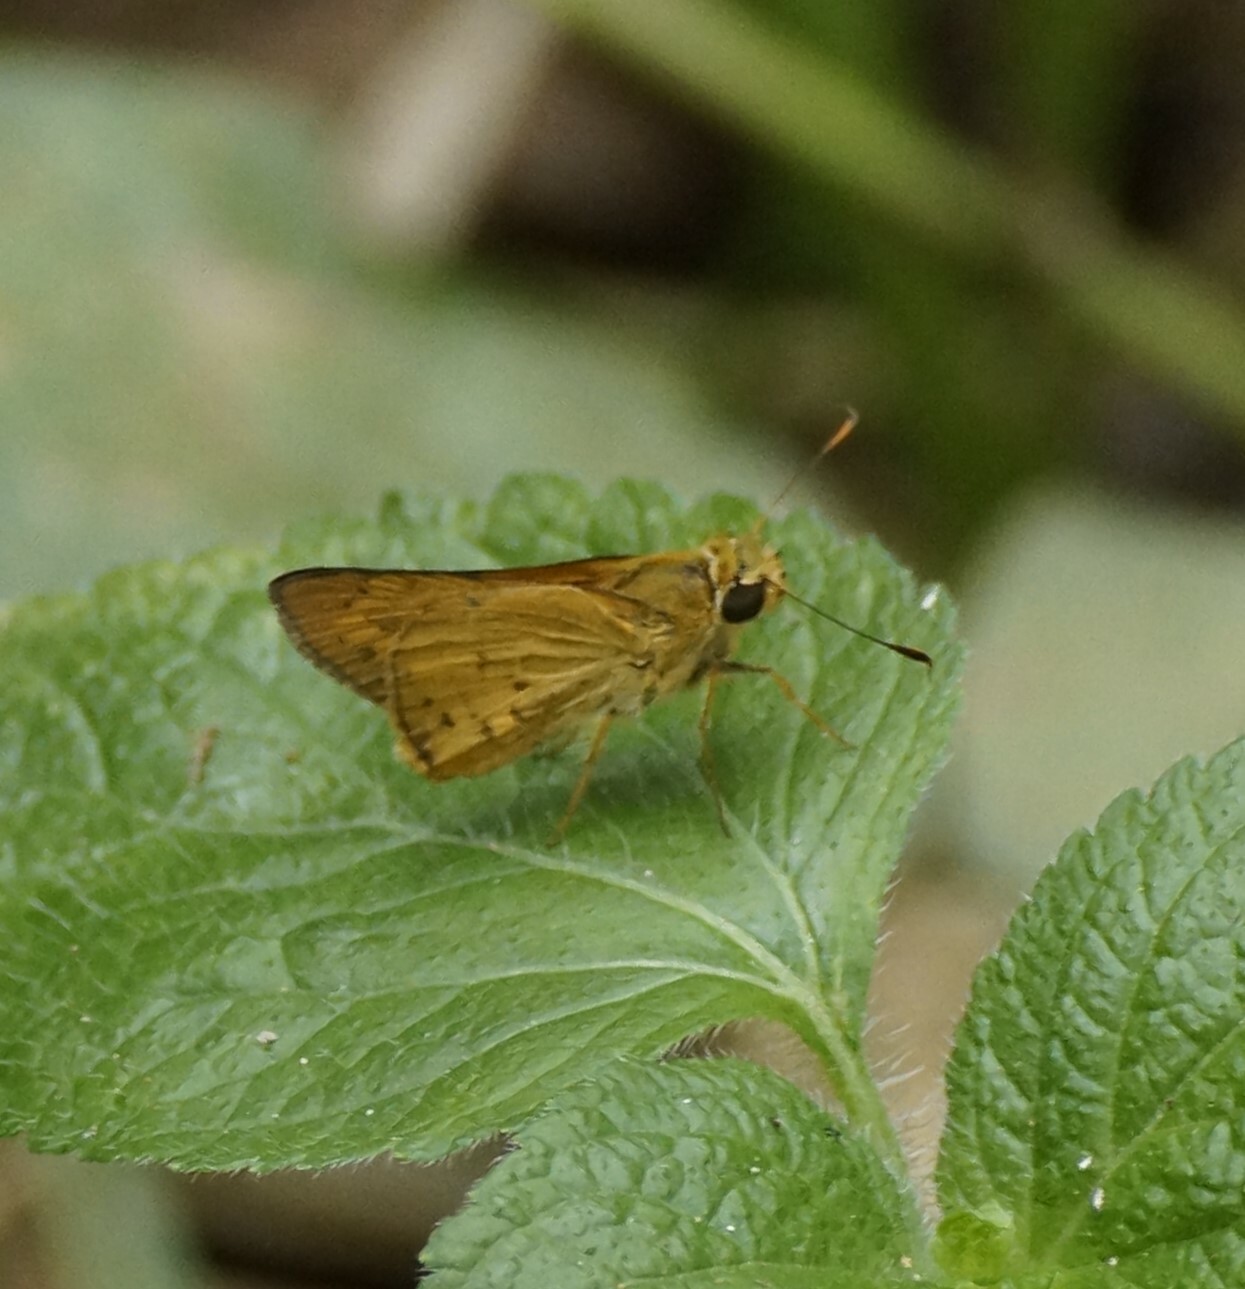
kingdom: Animalia
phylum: Arthropoda
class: Insecta
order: Lepidoptera
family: Hesperiidae
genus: Telicota
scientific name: Telicota paceka
